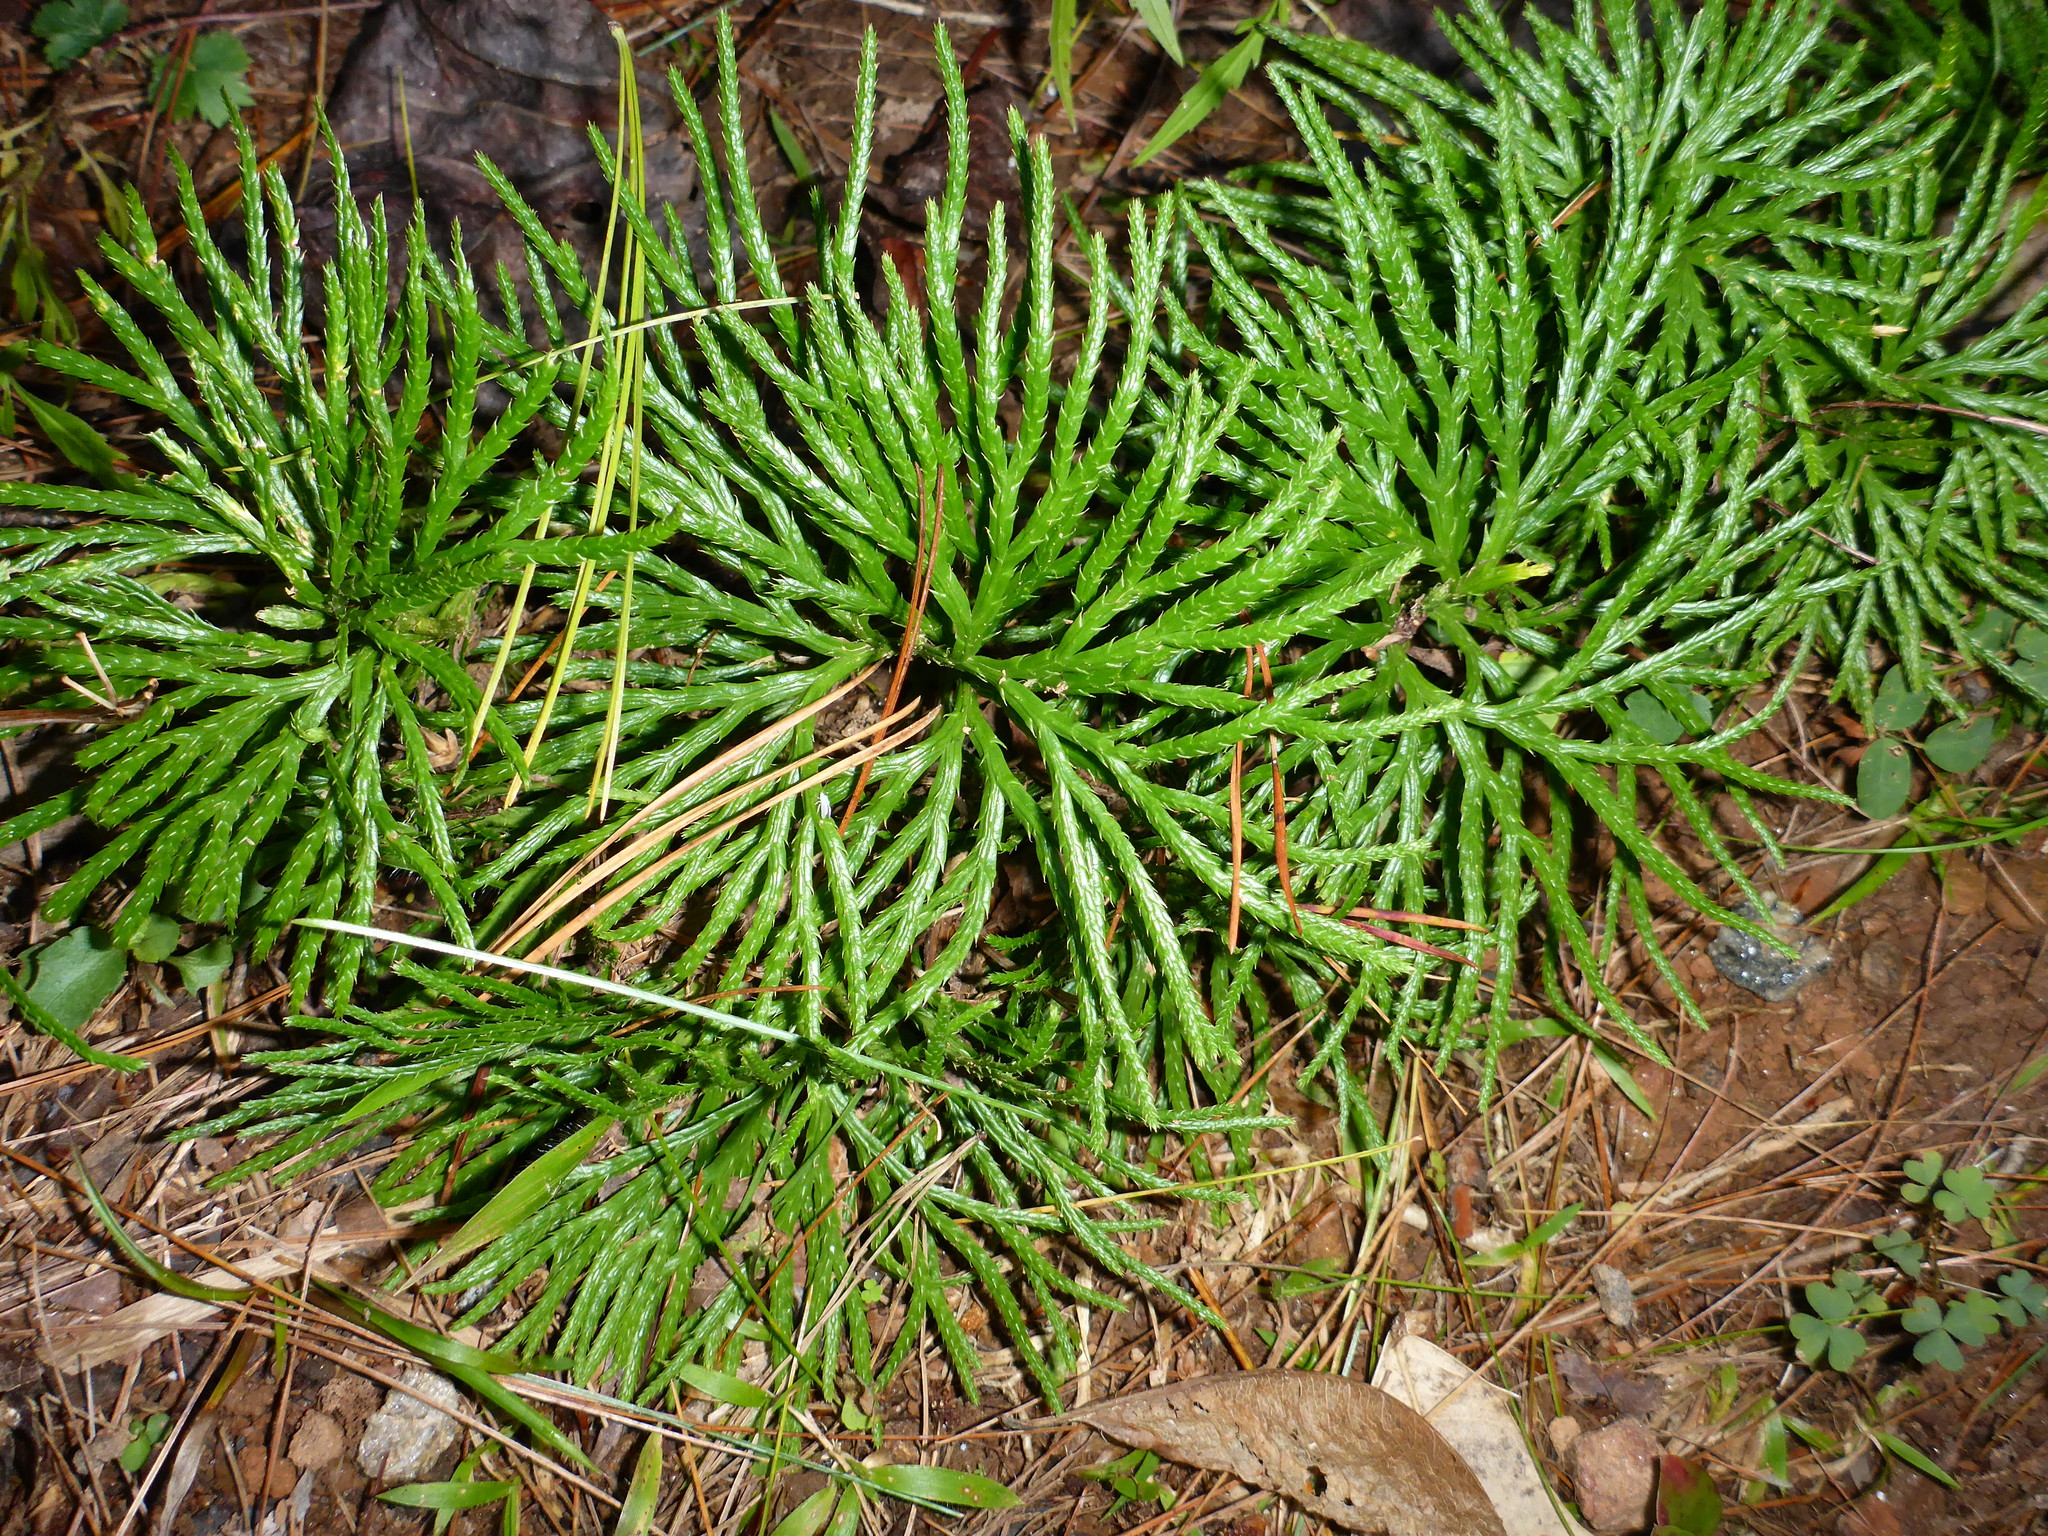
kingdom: Plantae
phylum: Tracheophyta
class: Lycopodiopsida
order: Lycopodiales
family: Lycopodiaceae
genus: Diphasiastrum
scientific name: Diphasiastrum digitatum
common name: Southern running-pine
